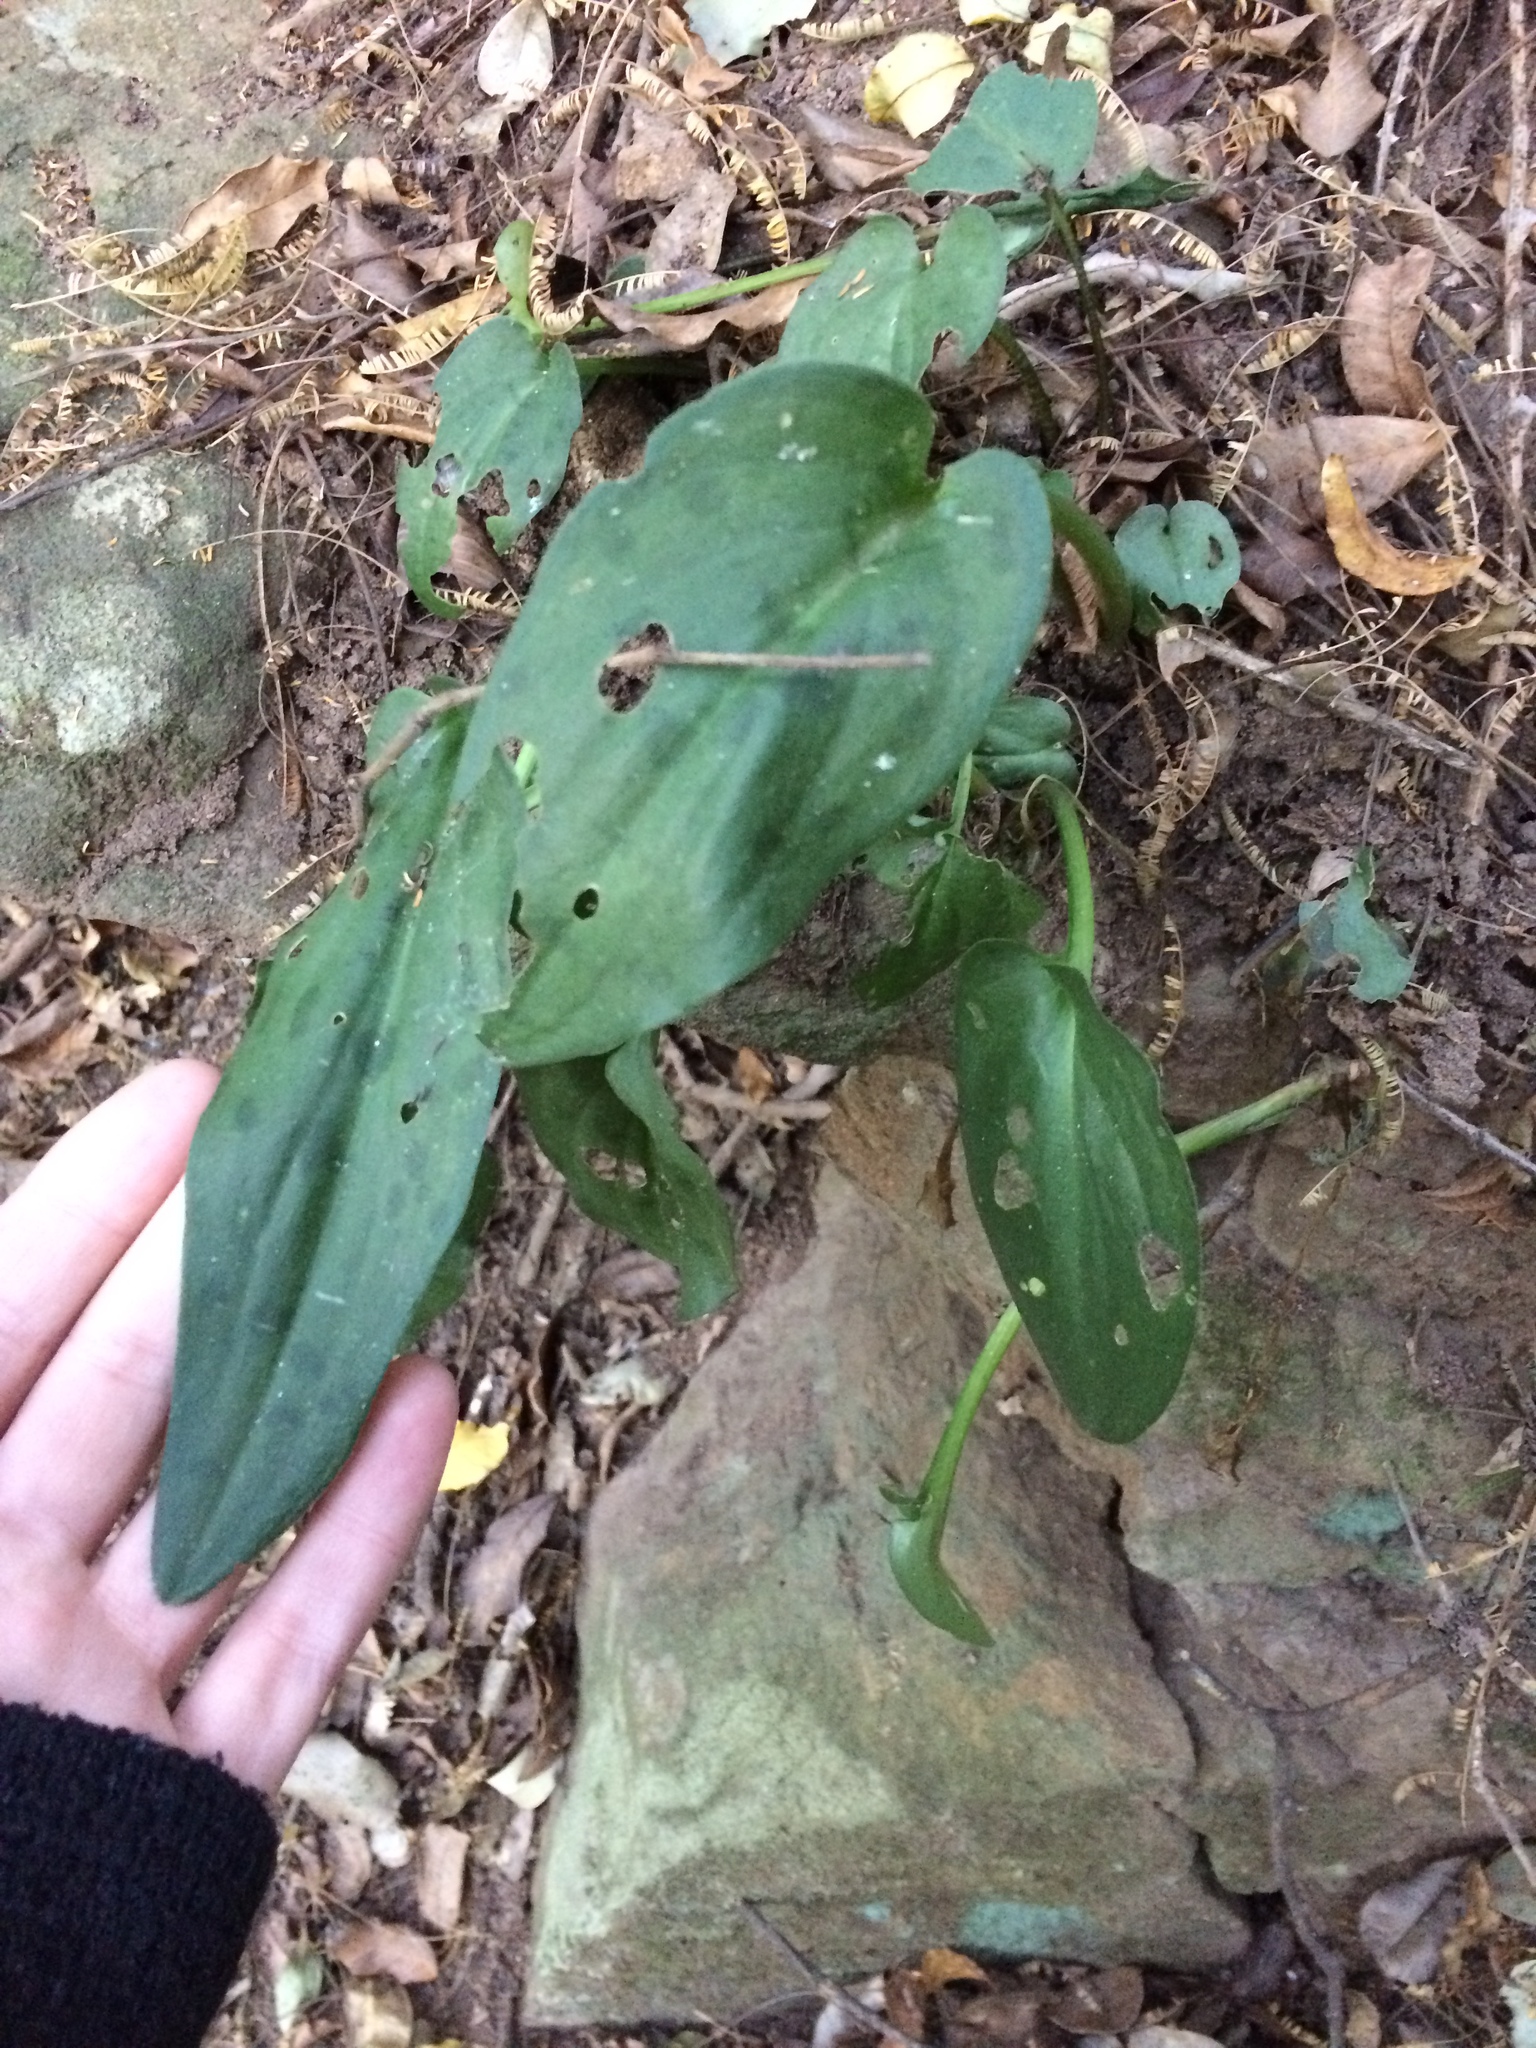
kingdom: Plantae
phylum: Tracheophyta
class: Liliopsida
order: Asparagales
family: Asparagaceae
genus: Drimiopsis
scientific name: Drimiopsis maculata
